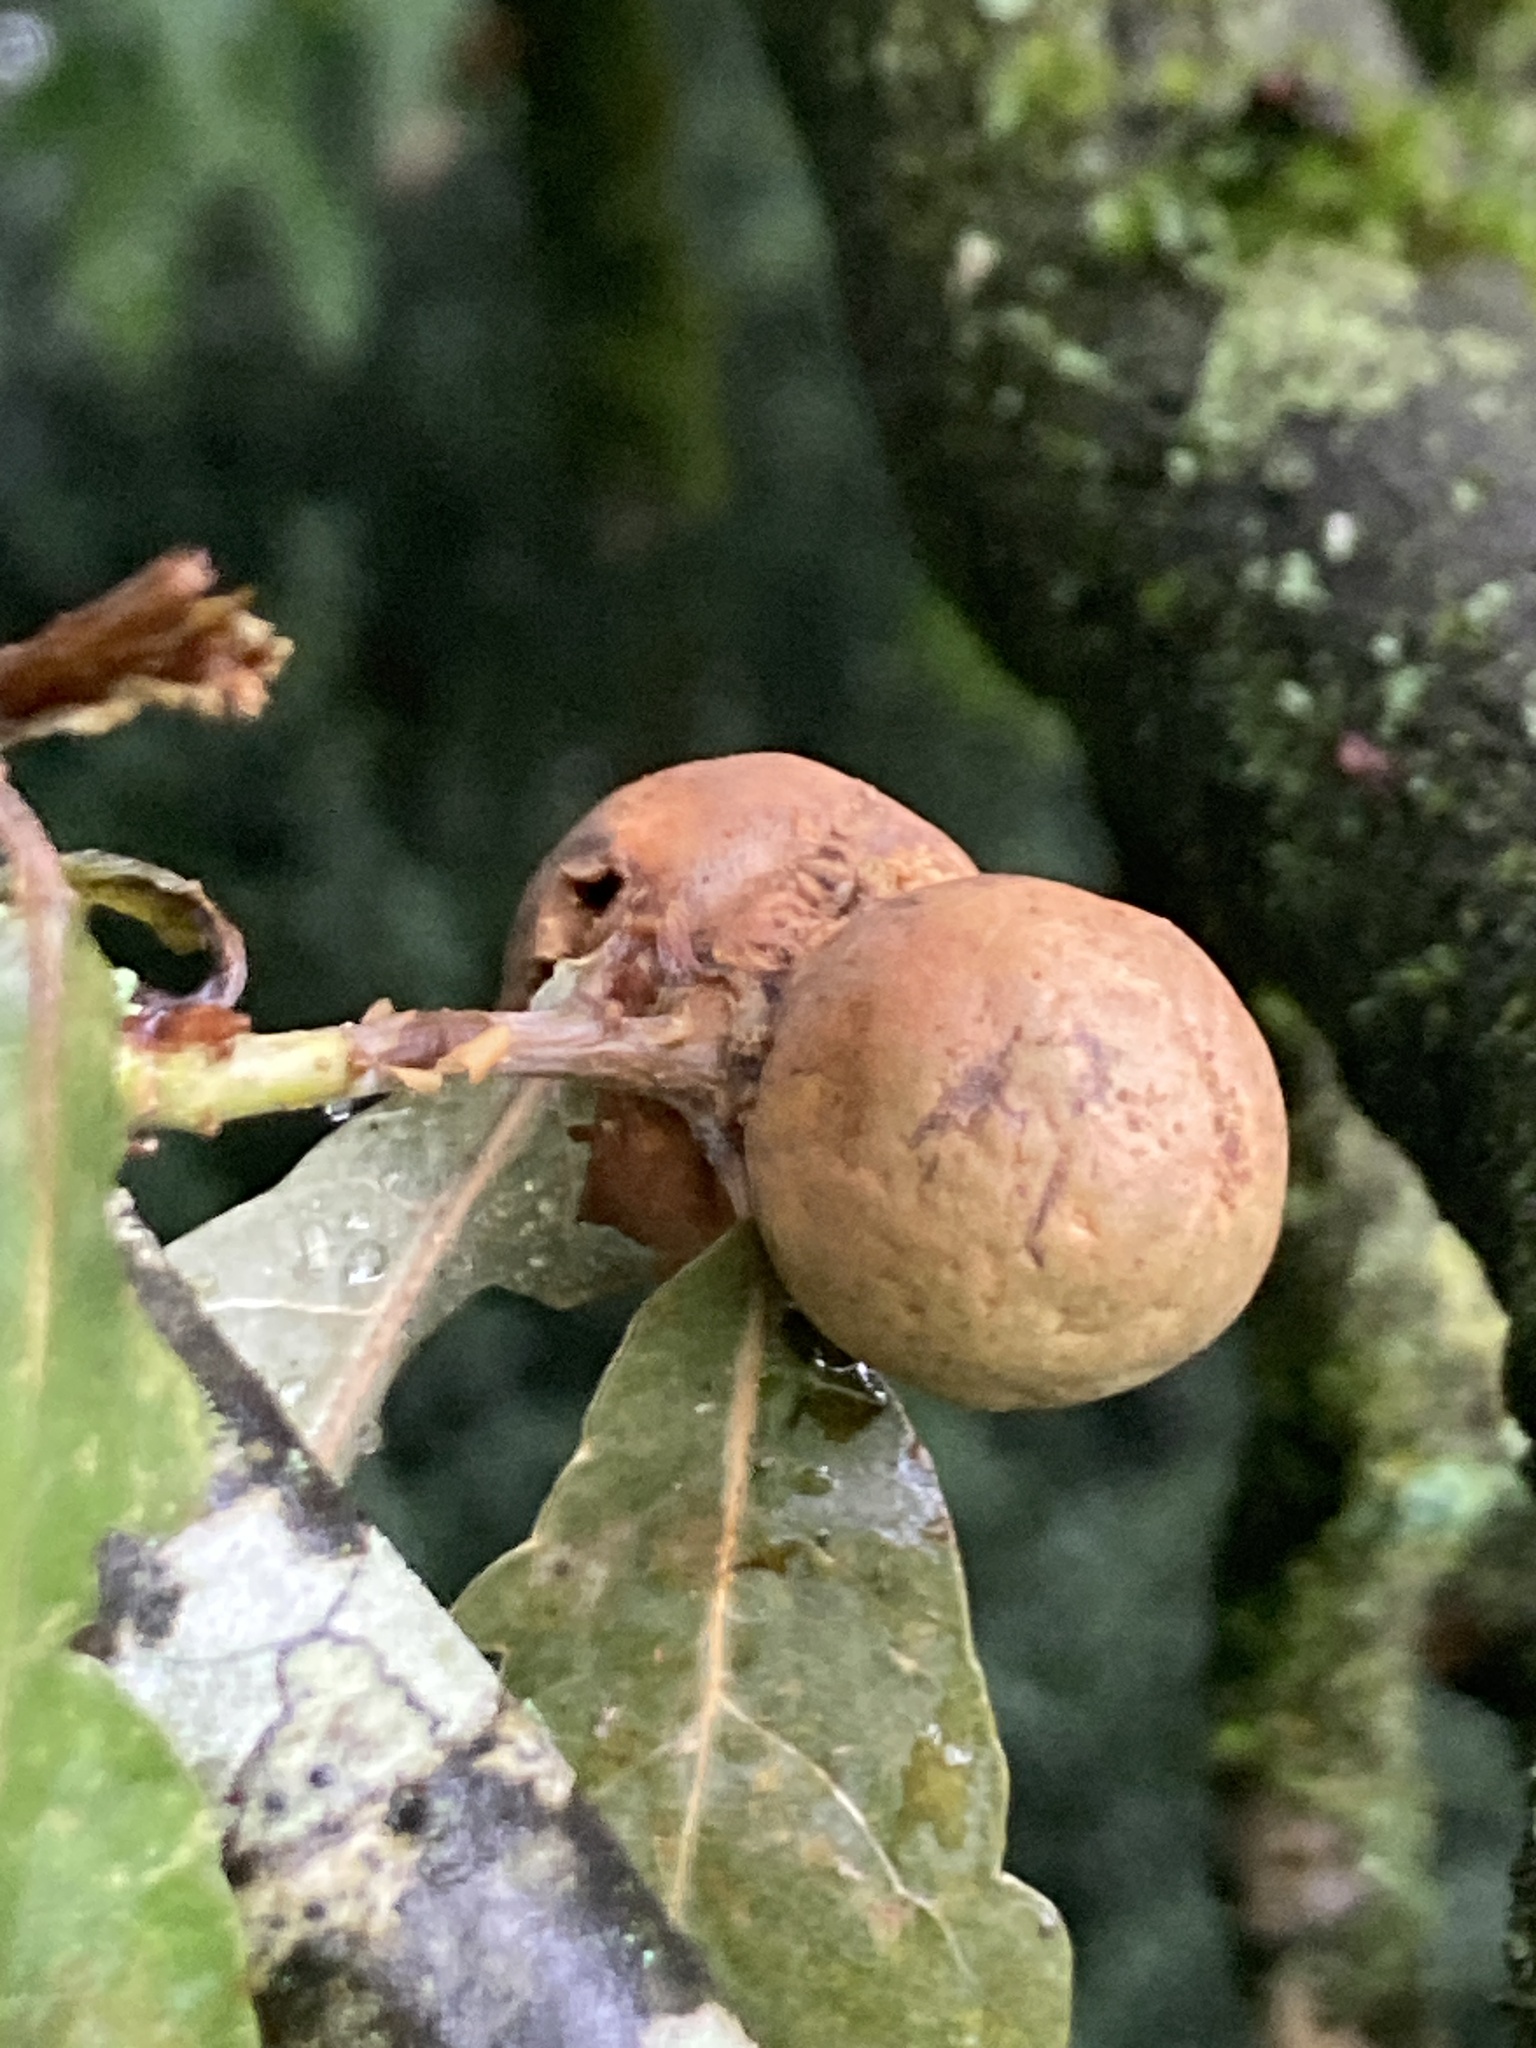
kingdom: Animalia
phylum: Arthropoda
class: Insecta
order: Hymenoptera
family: Cynipidae
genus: Andricus
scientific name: Andricus kollari
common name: Marble gall
